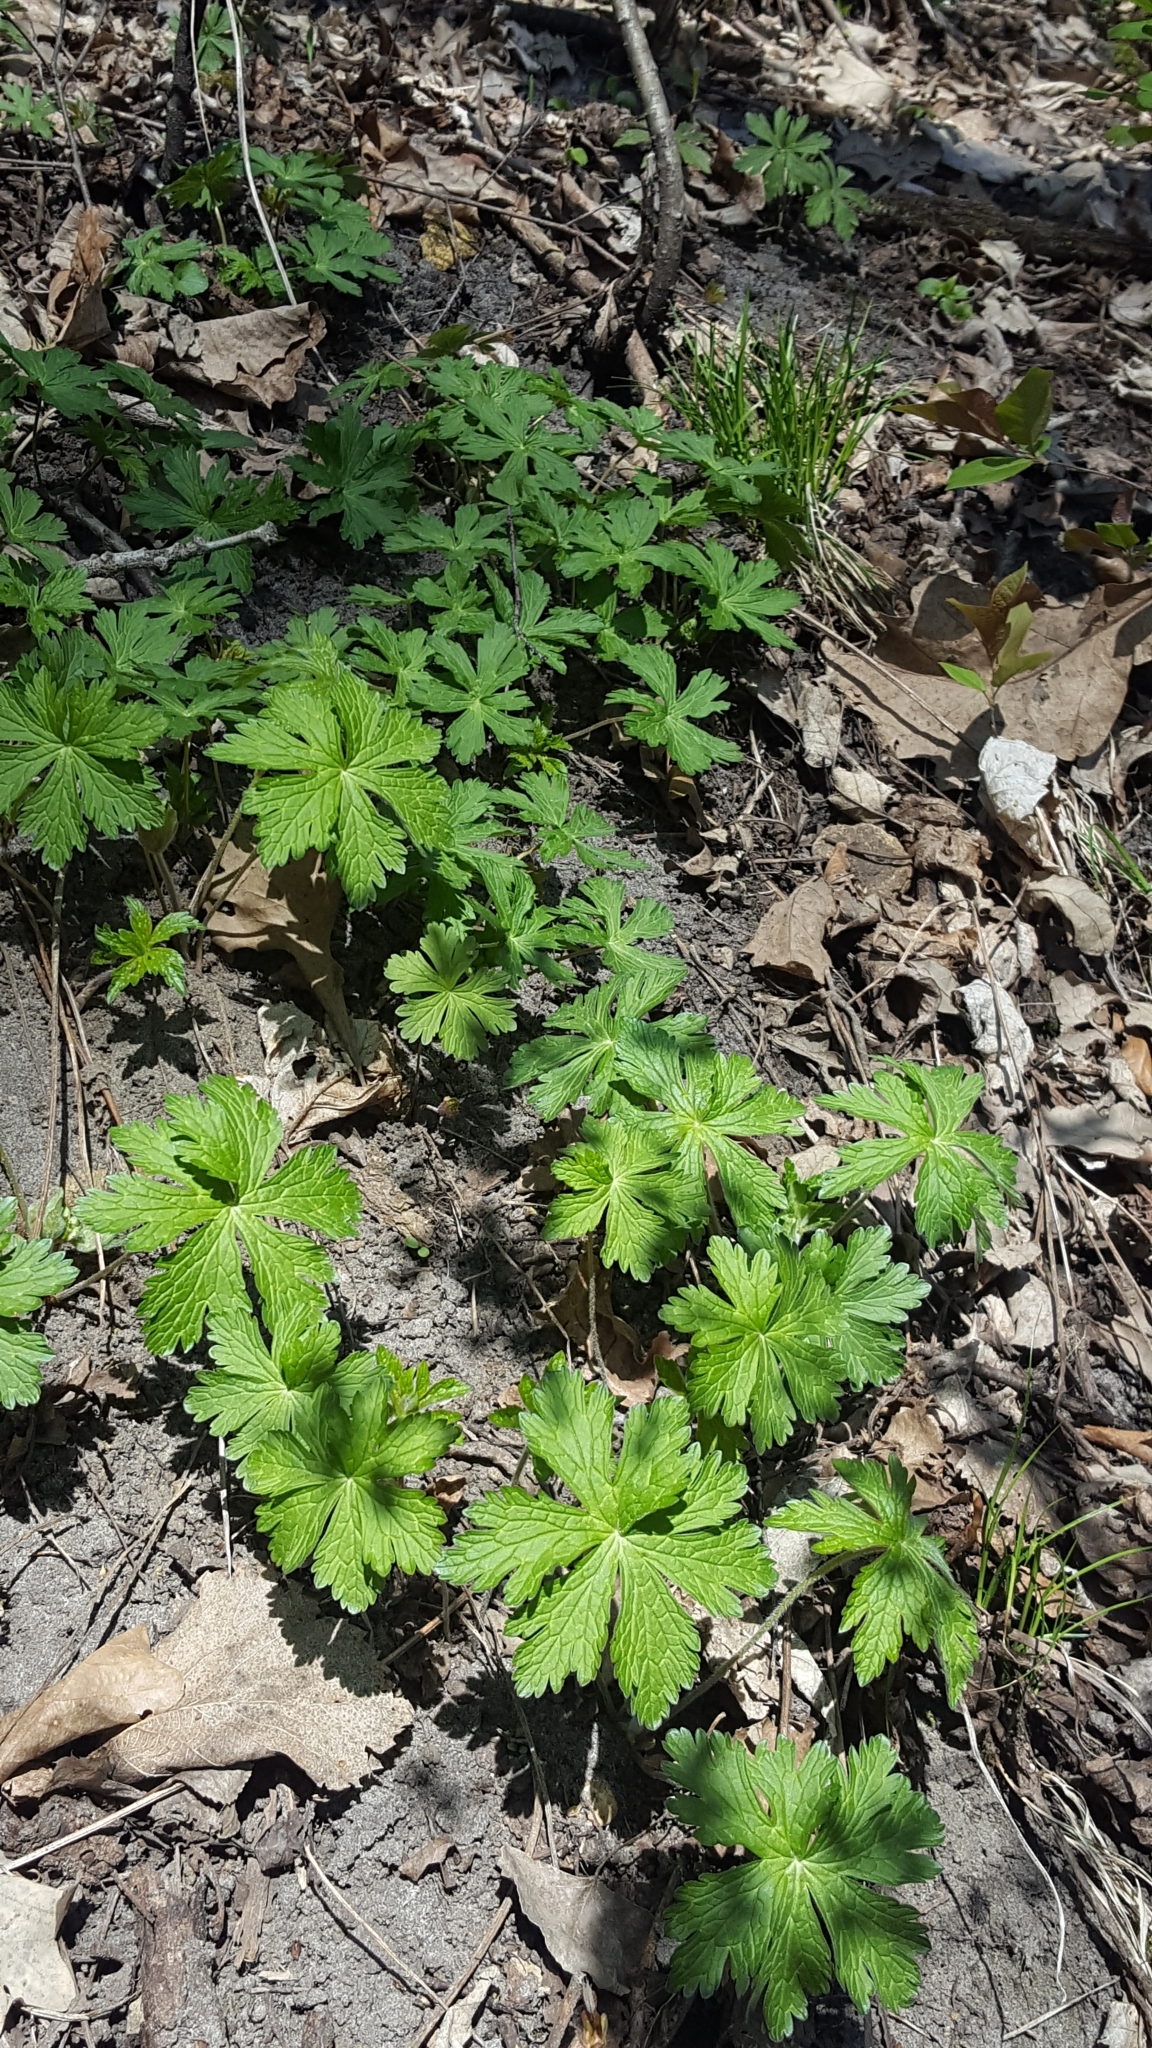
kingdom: Plantae
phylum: Tracheophyta
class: Magnoliopsida
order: Geraniales
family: Geraniaceae
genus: Geranium
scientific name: Geranium maculatum
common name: Spotted geranium
